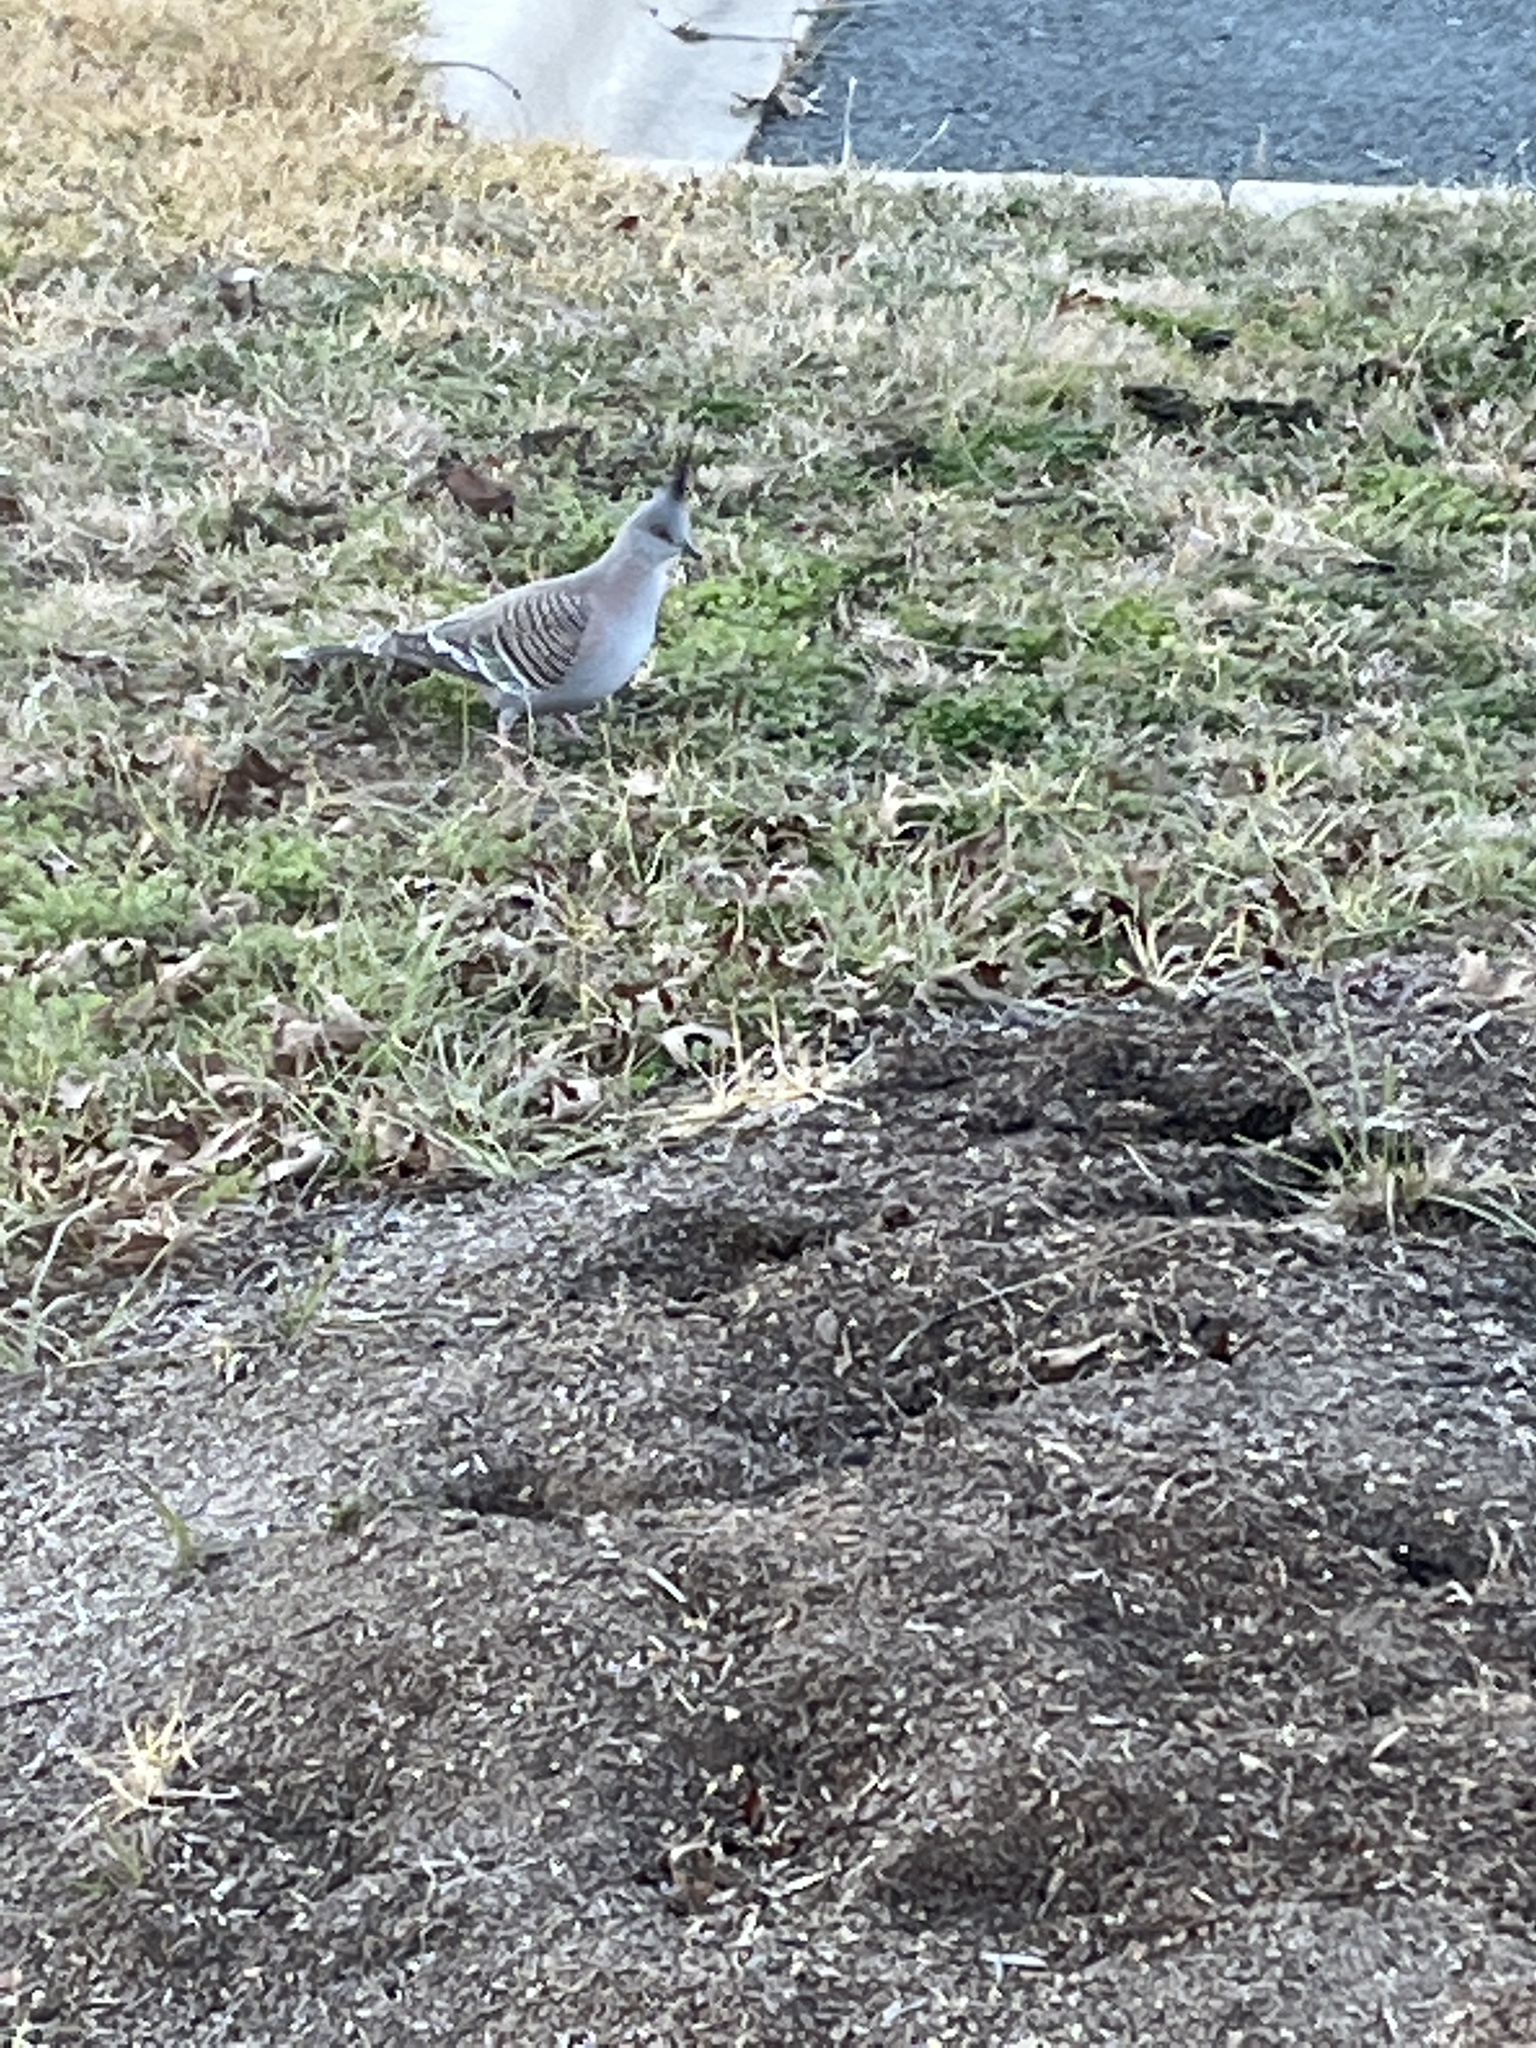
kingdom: Animalia
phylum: Chordata
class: Aves
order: Columbiformes
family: Columbidae
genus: Ocyphaps
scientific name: Ocyphaps lophotes
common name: Crested pigeon
